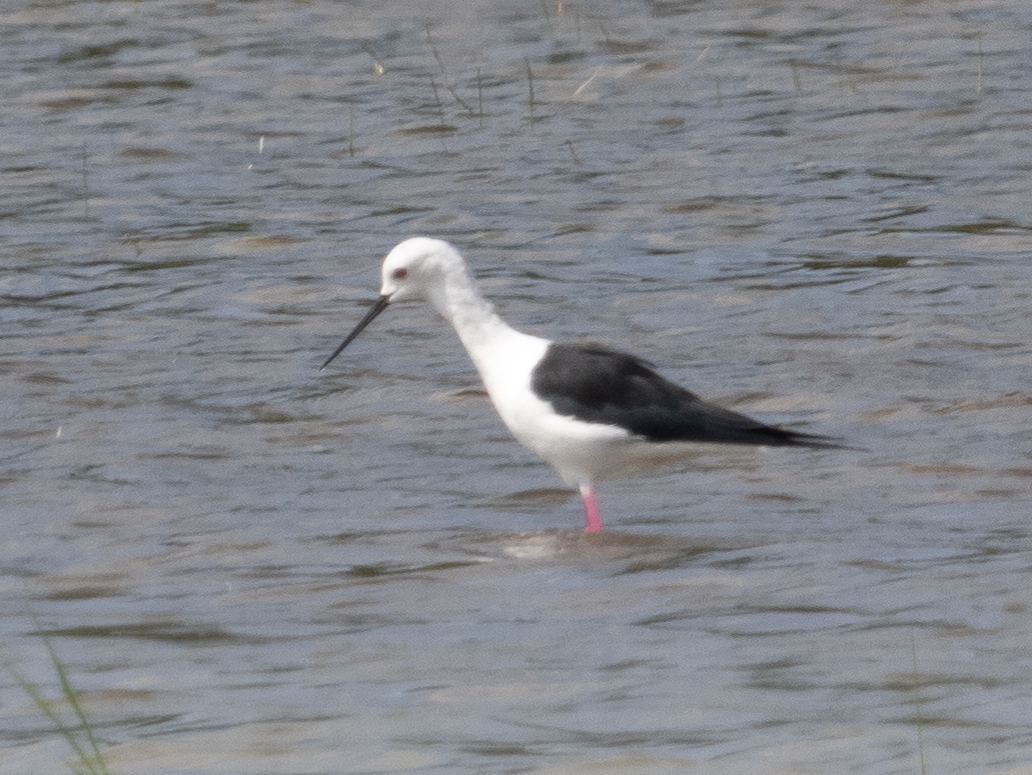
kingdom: Animalia
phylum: Chordata
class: Aves
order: Charadriiformes
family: Recurvirostridae
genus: Himantopus
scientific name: Himantopus himantopus
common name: Black-winged stilt
